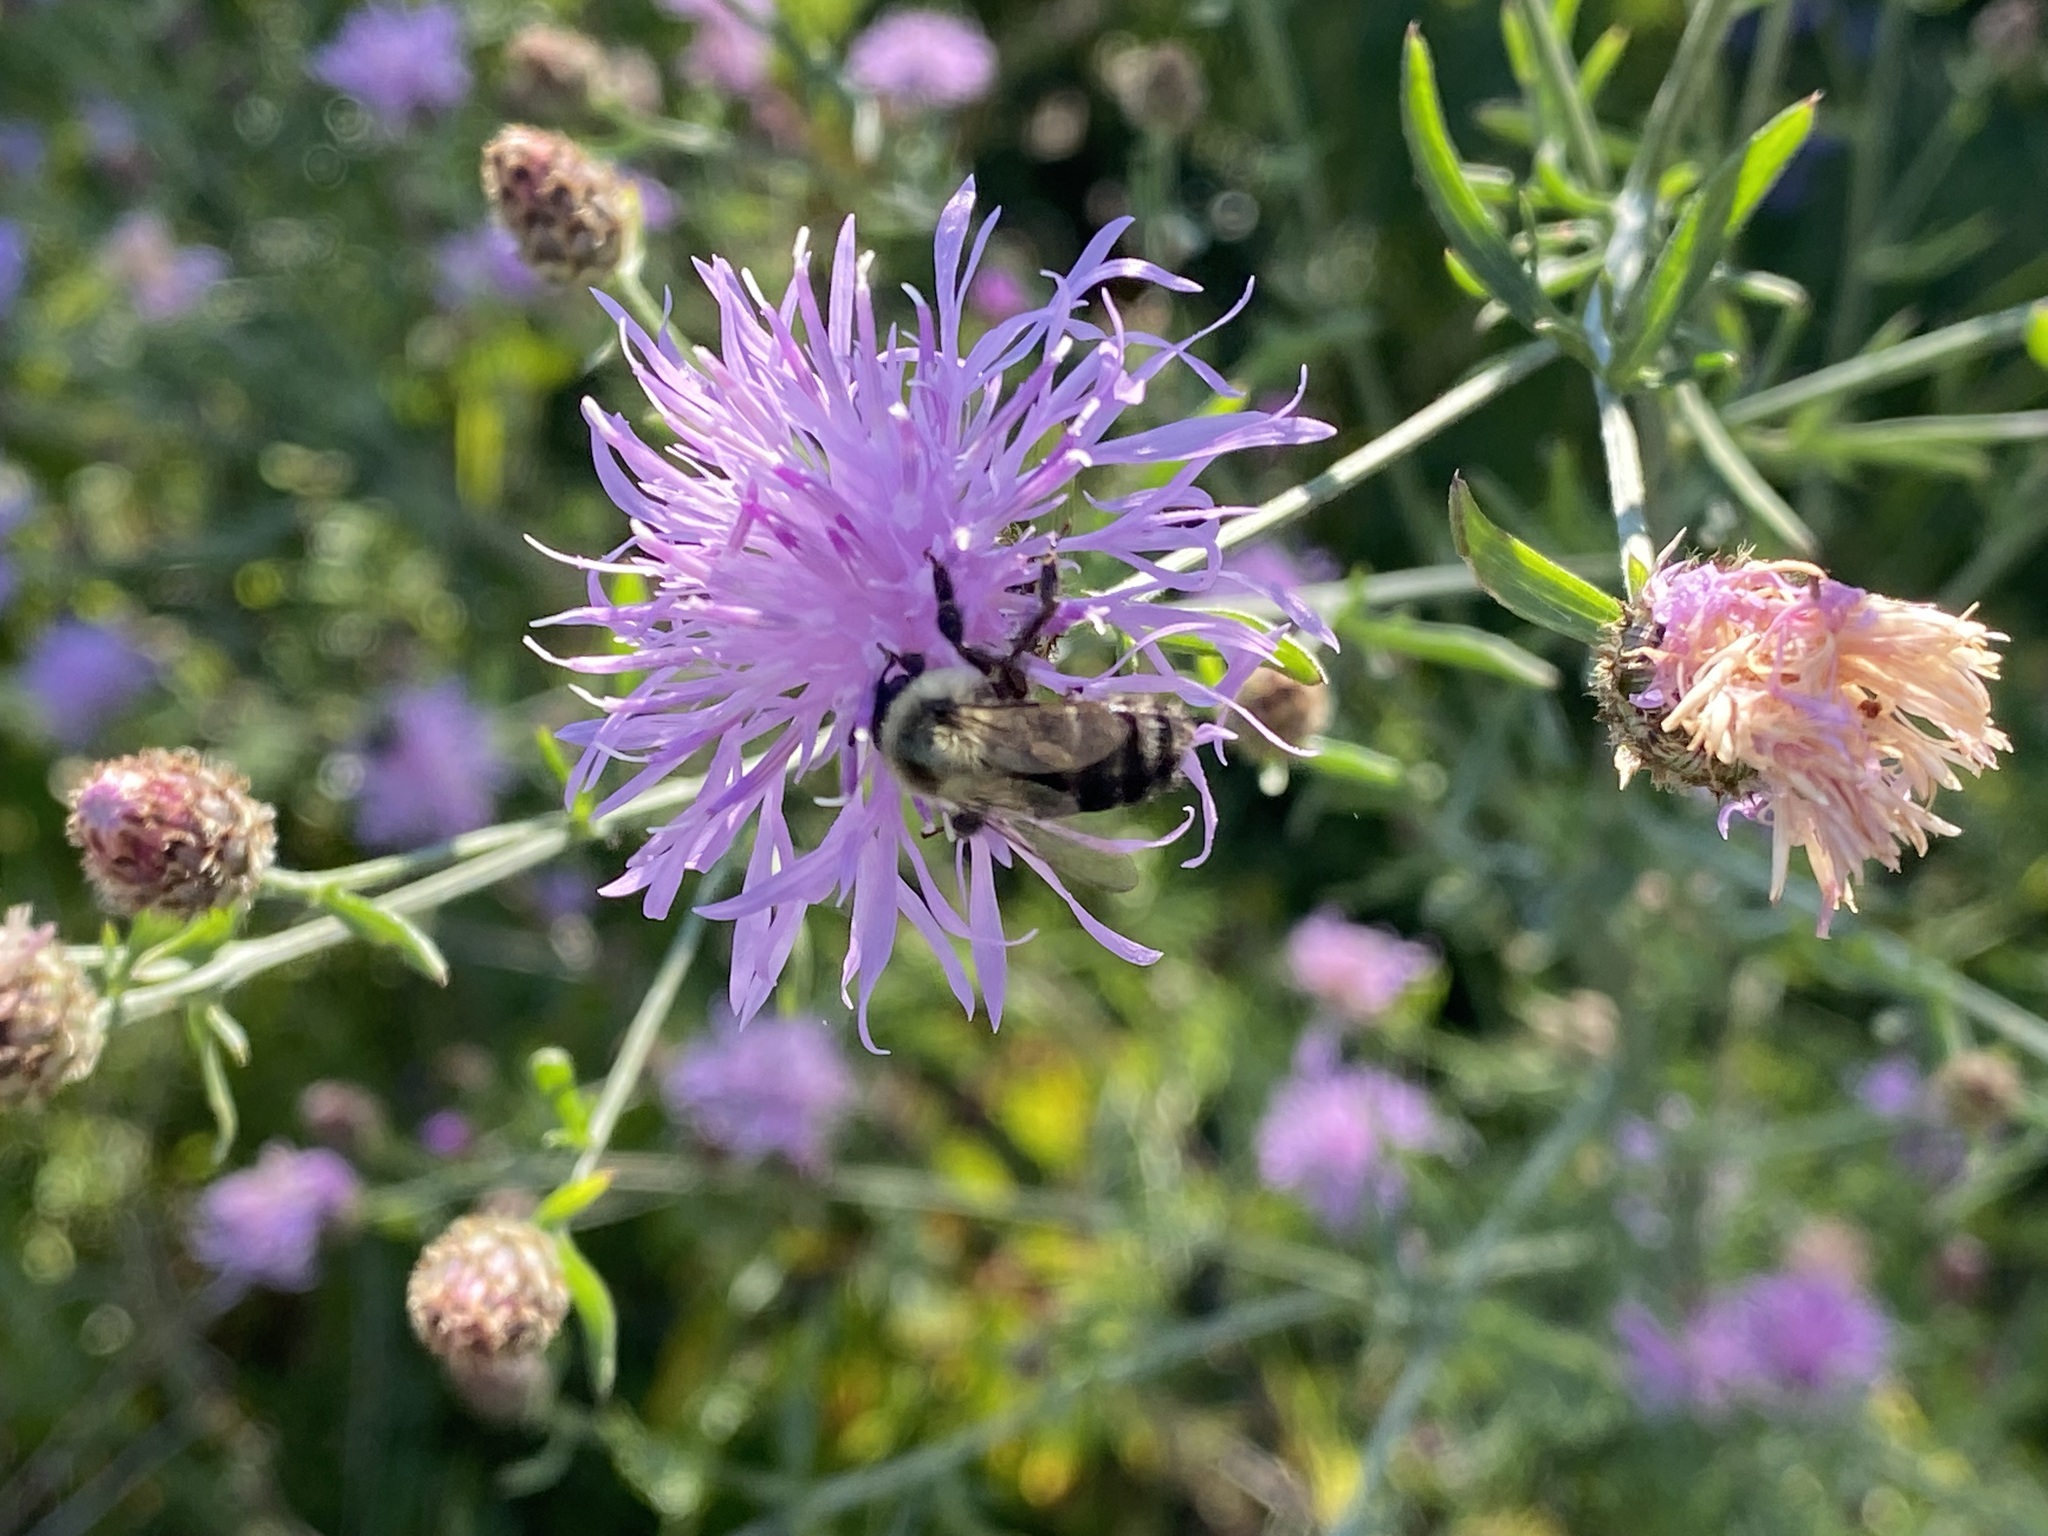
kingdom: Animalia
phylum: Arthropoda
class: Insecta
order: Hymenoptera
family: Apidae
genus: Bombus
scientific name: Bombus impatiens
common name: Common eastern bumble bee
